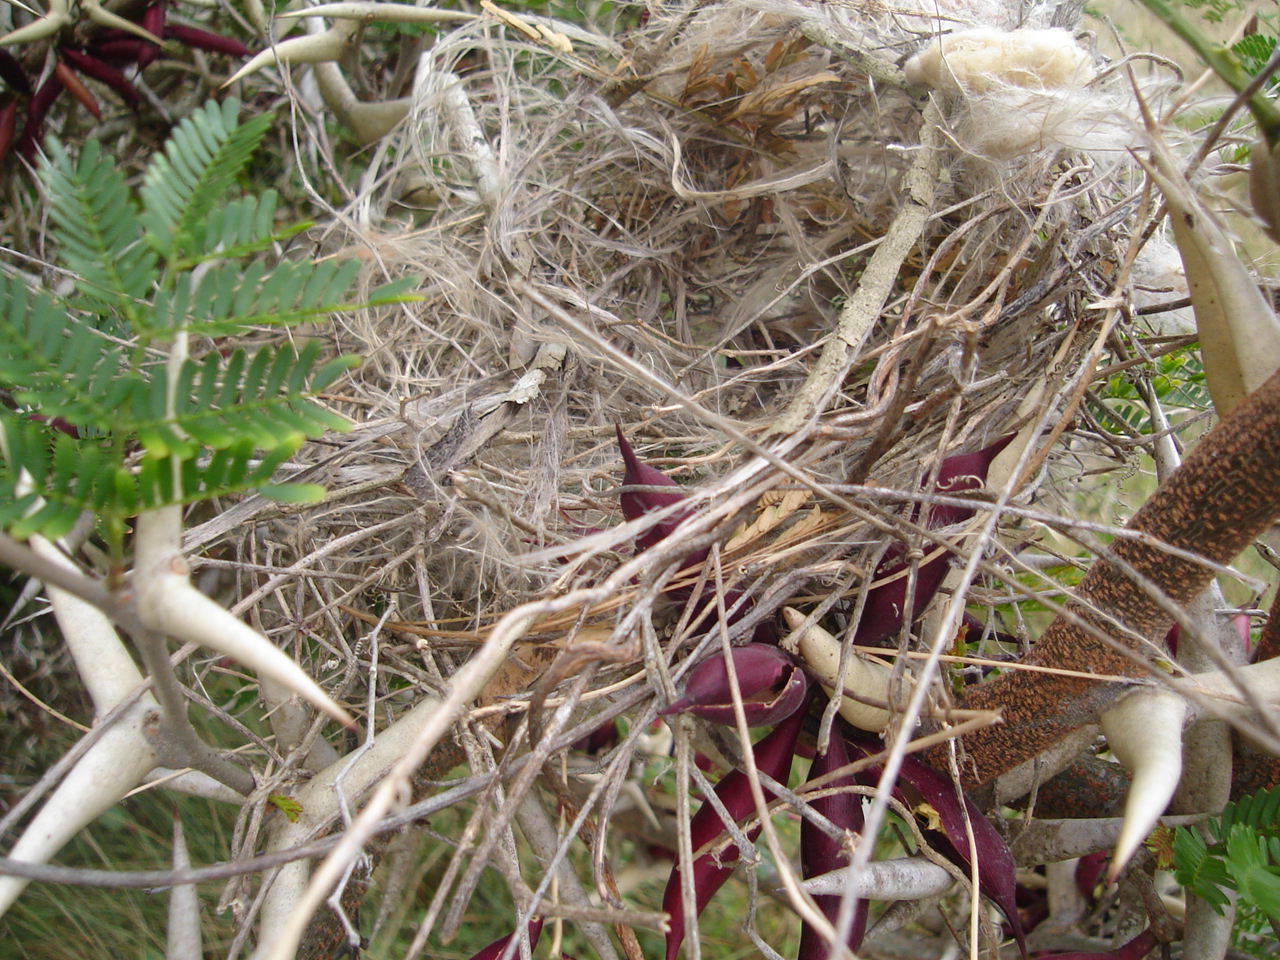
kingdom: Plantae
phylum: Tracheophyta
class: Magnoliopsida
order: Fabales
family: Fabaceae
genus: Vachellia
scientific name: Vachellia cornigera
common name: Bullhorn wattle
